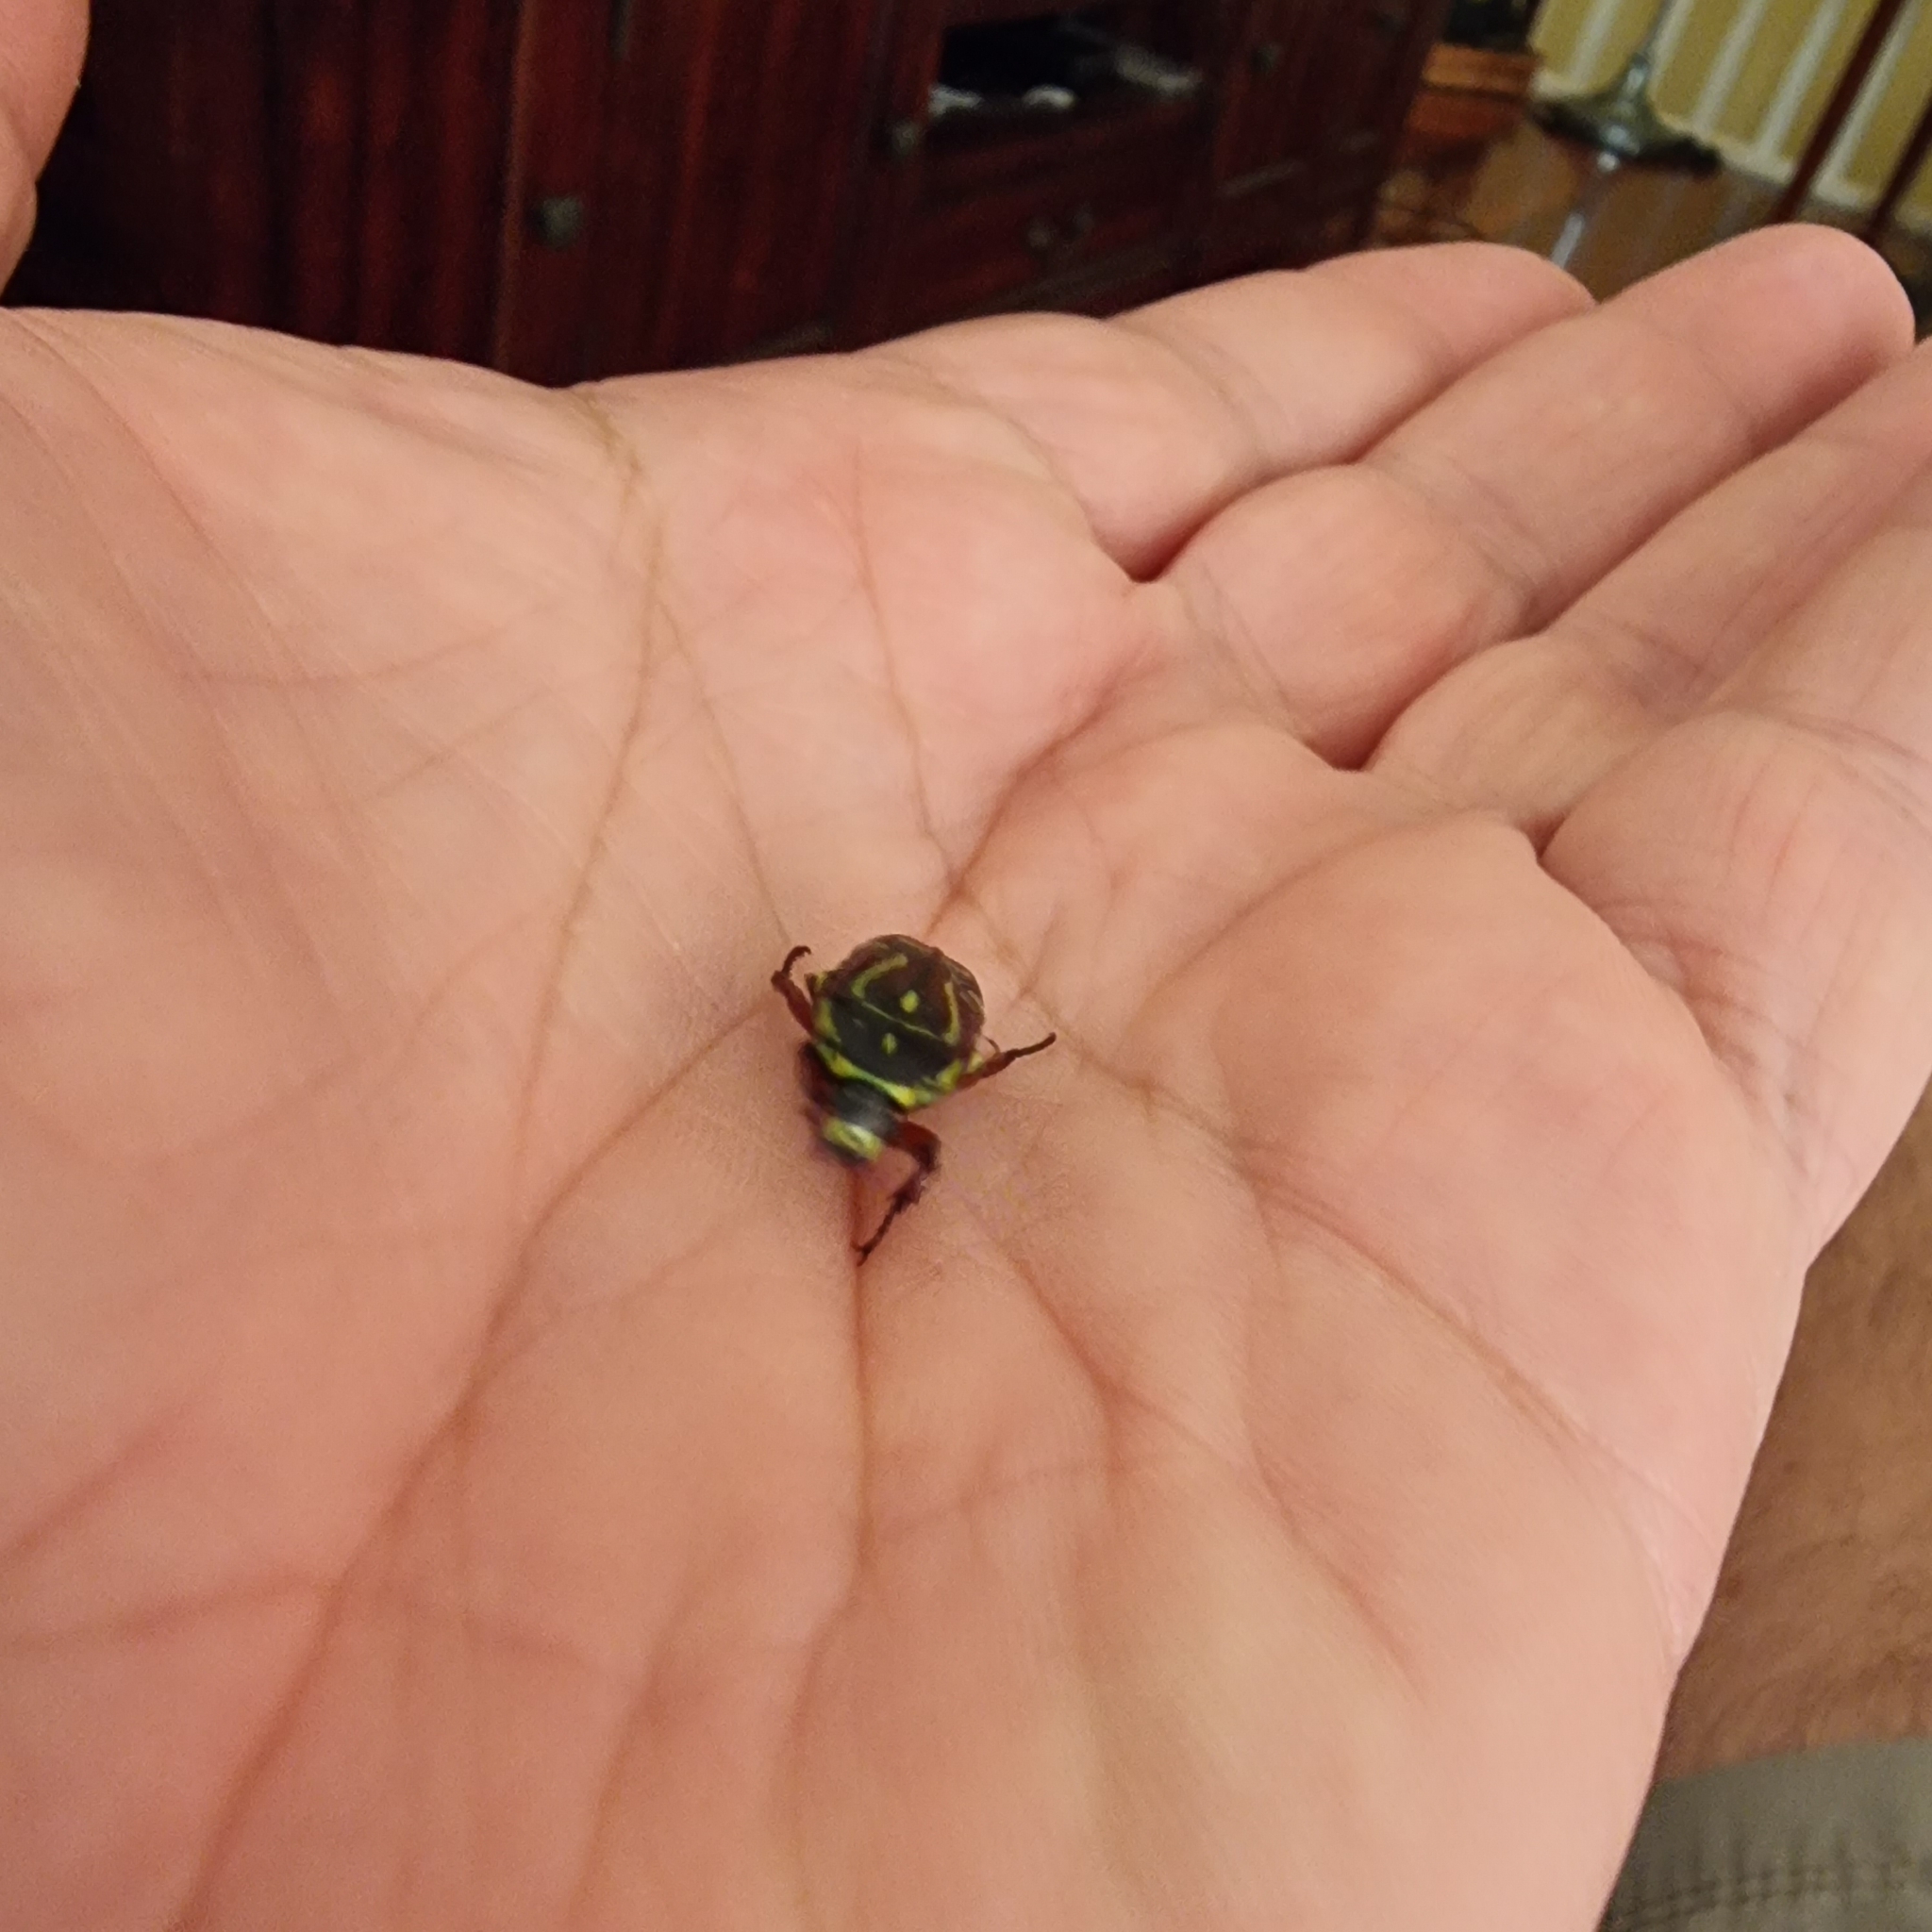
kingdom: Animalia
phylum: Arthropoda
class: Insecta
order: Coleoptera
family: Scarabaeidae
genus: Eupoecila
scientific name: Eupoecila australasiae
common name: Fiddler beetle
